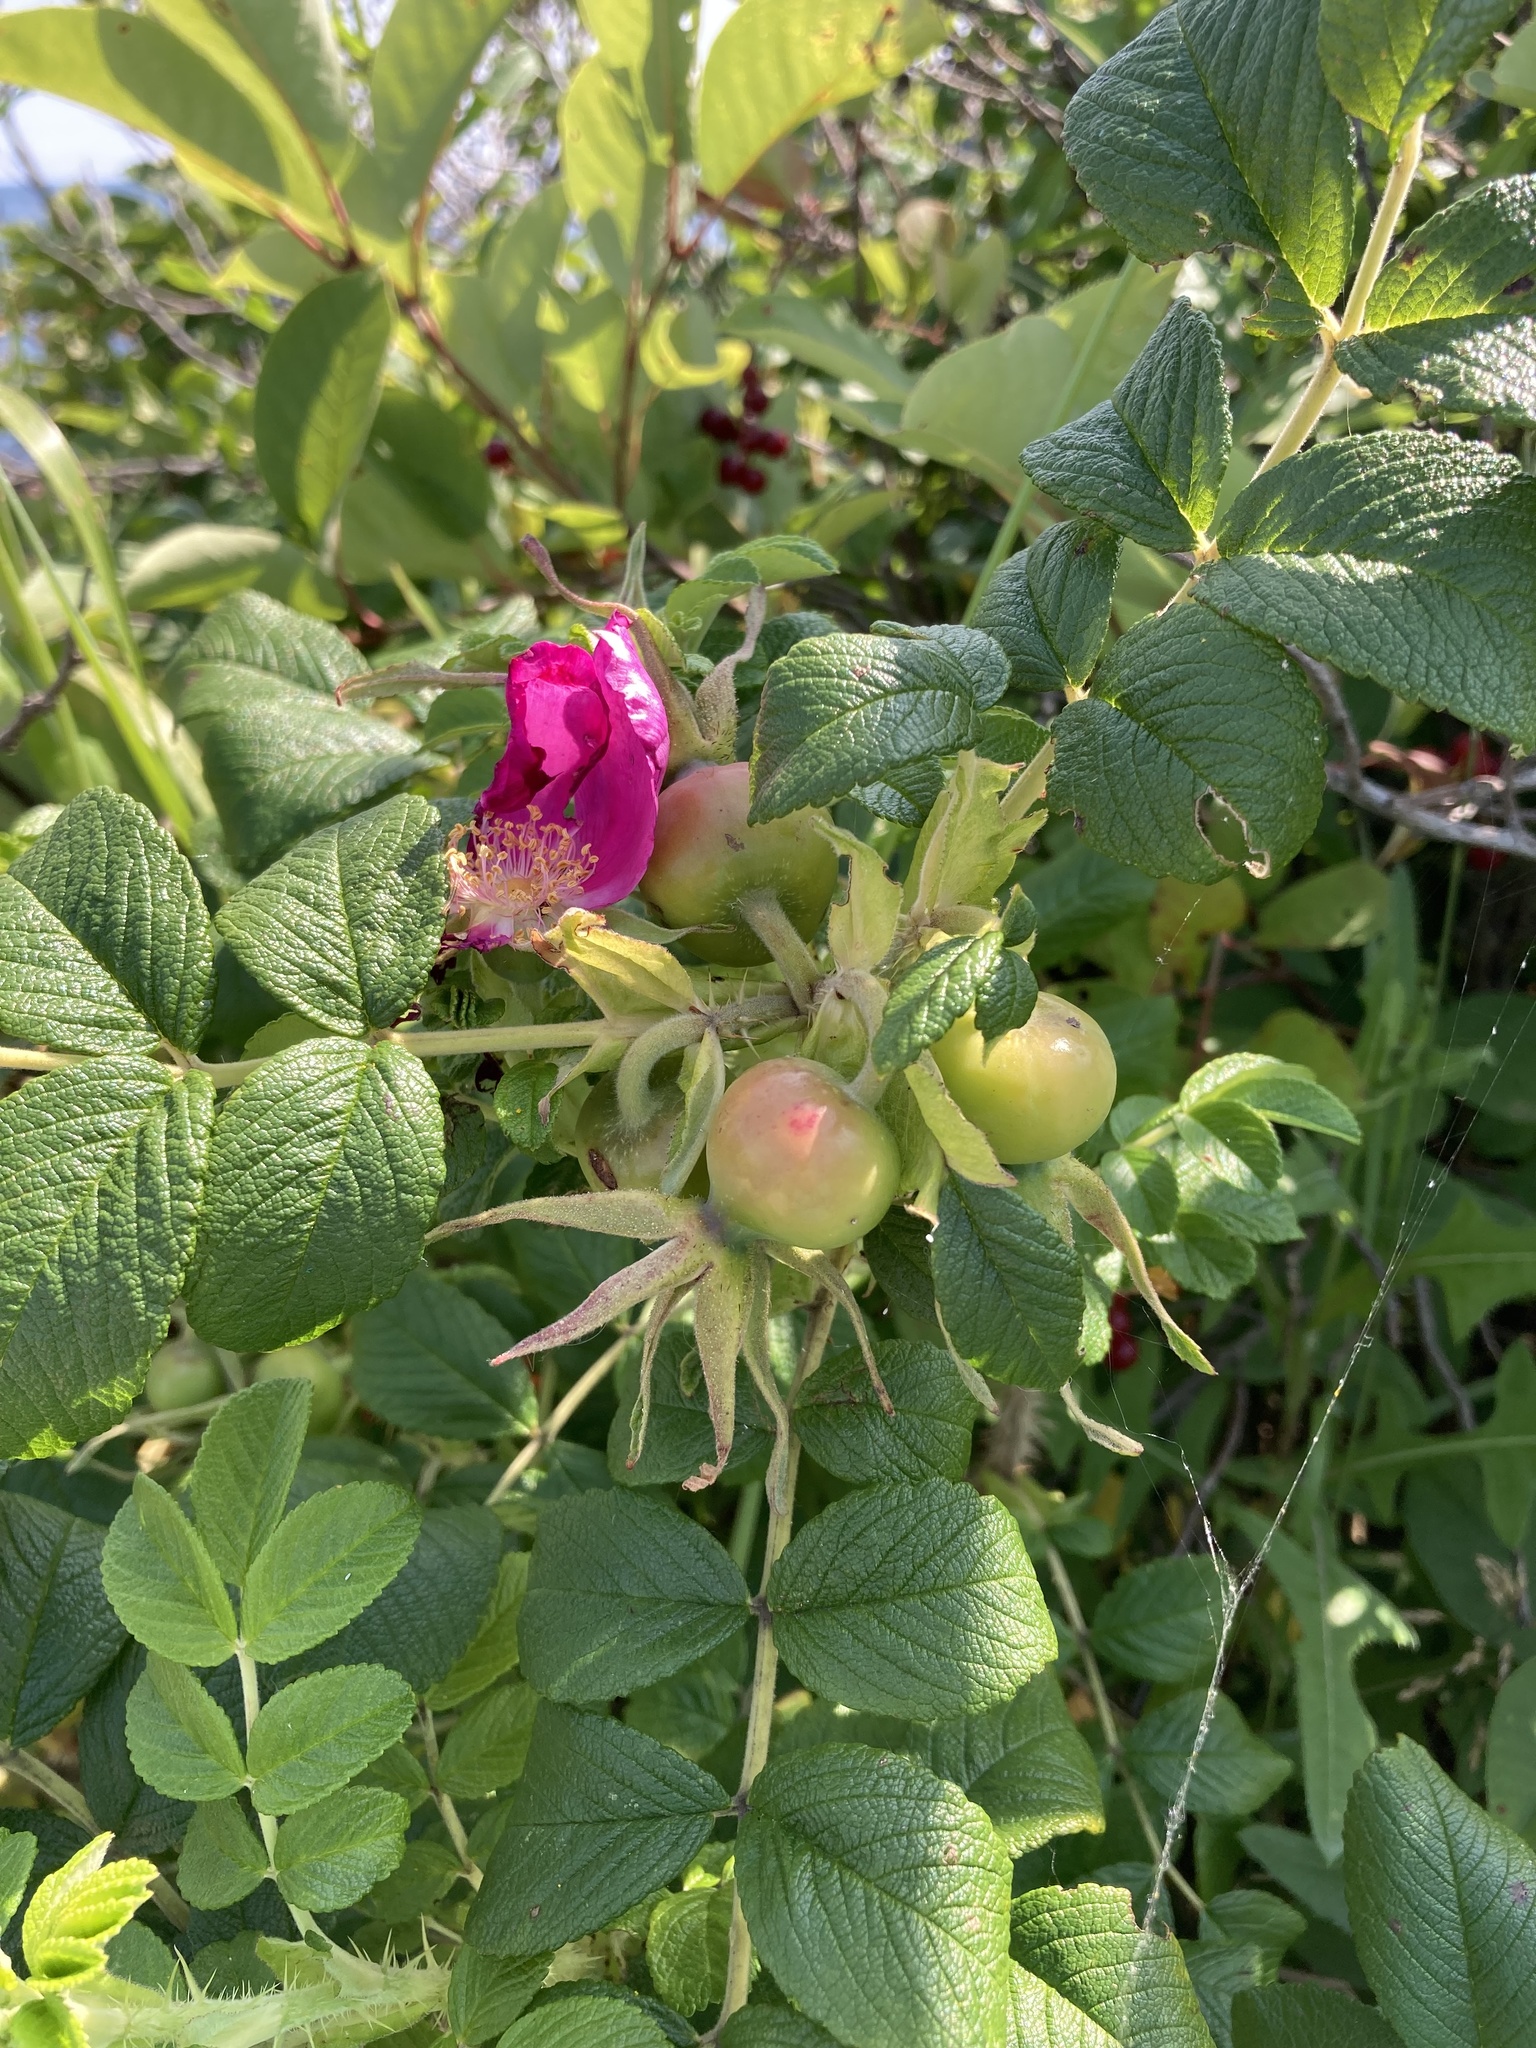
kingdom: Plantae
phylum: Tracheophyta
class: Magnoliopsida
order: Rosales
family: Rosaceae
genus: Rosa
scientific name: Rosa rugosa
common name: Japanese rose
